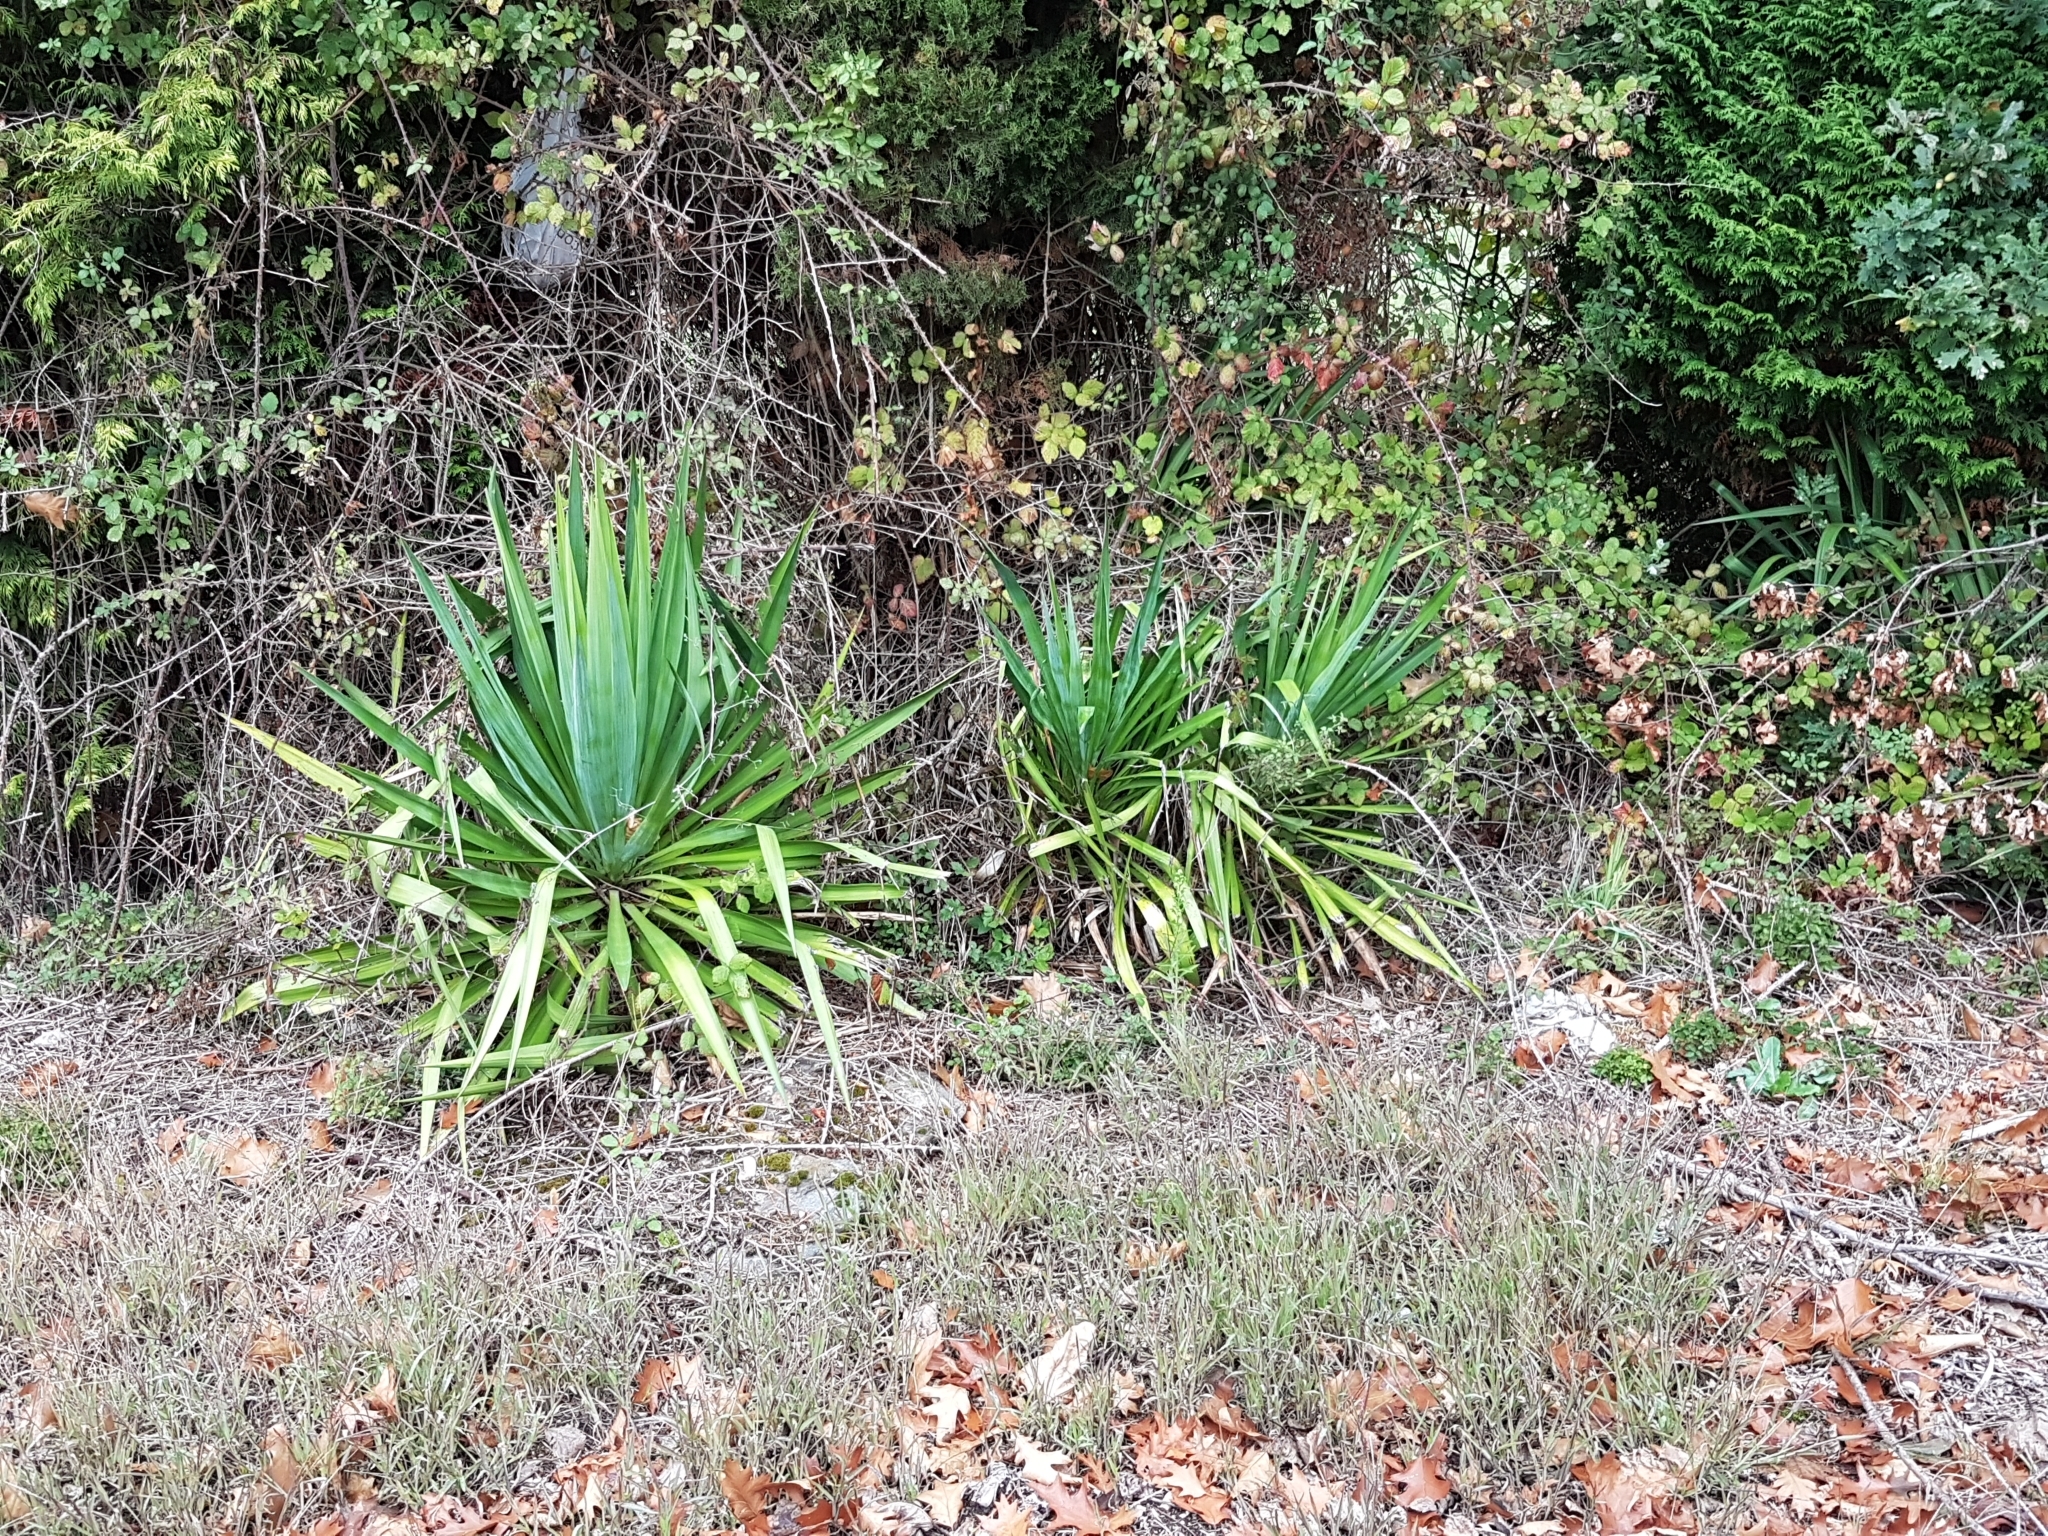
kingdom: Plantae
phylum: Tracheophyta
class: Liliopsida
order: Asparagales
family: Asparagaceae
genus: Yucca
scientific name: Yucca gloriosa
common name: Spanish-dagger
